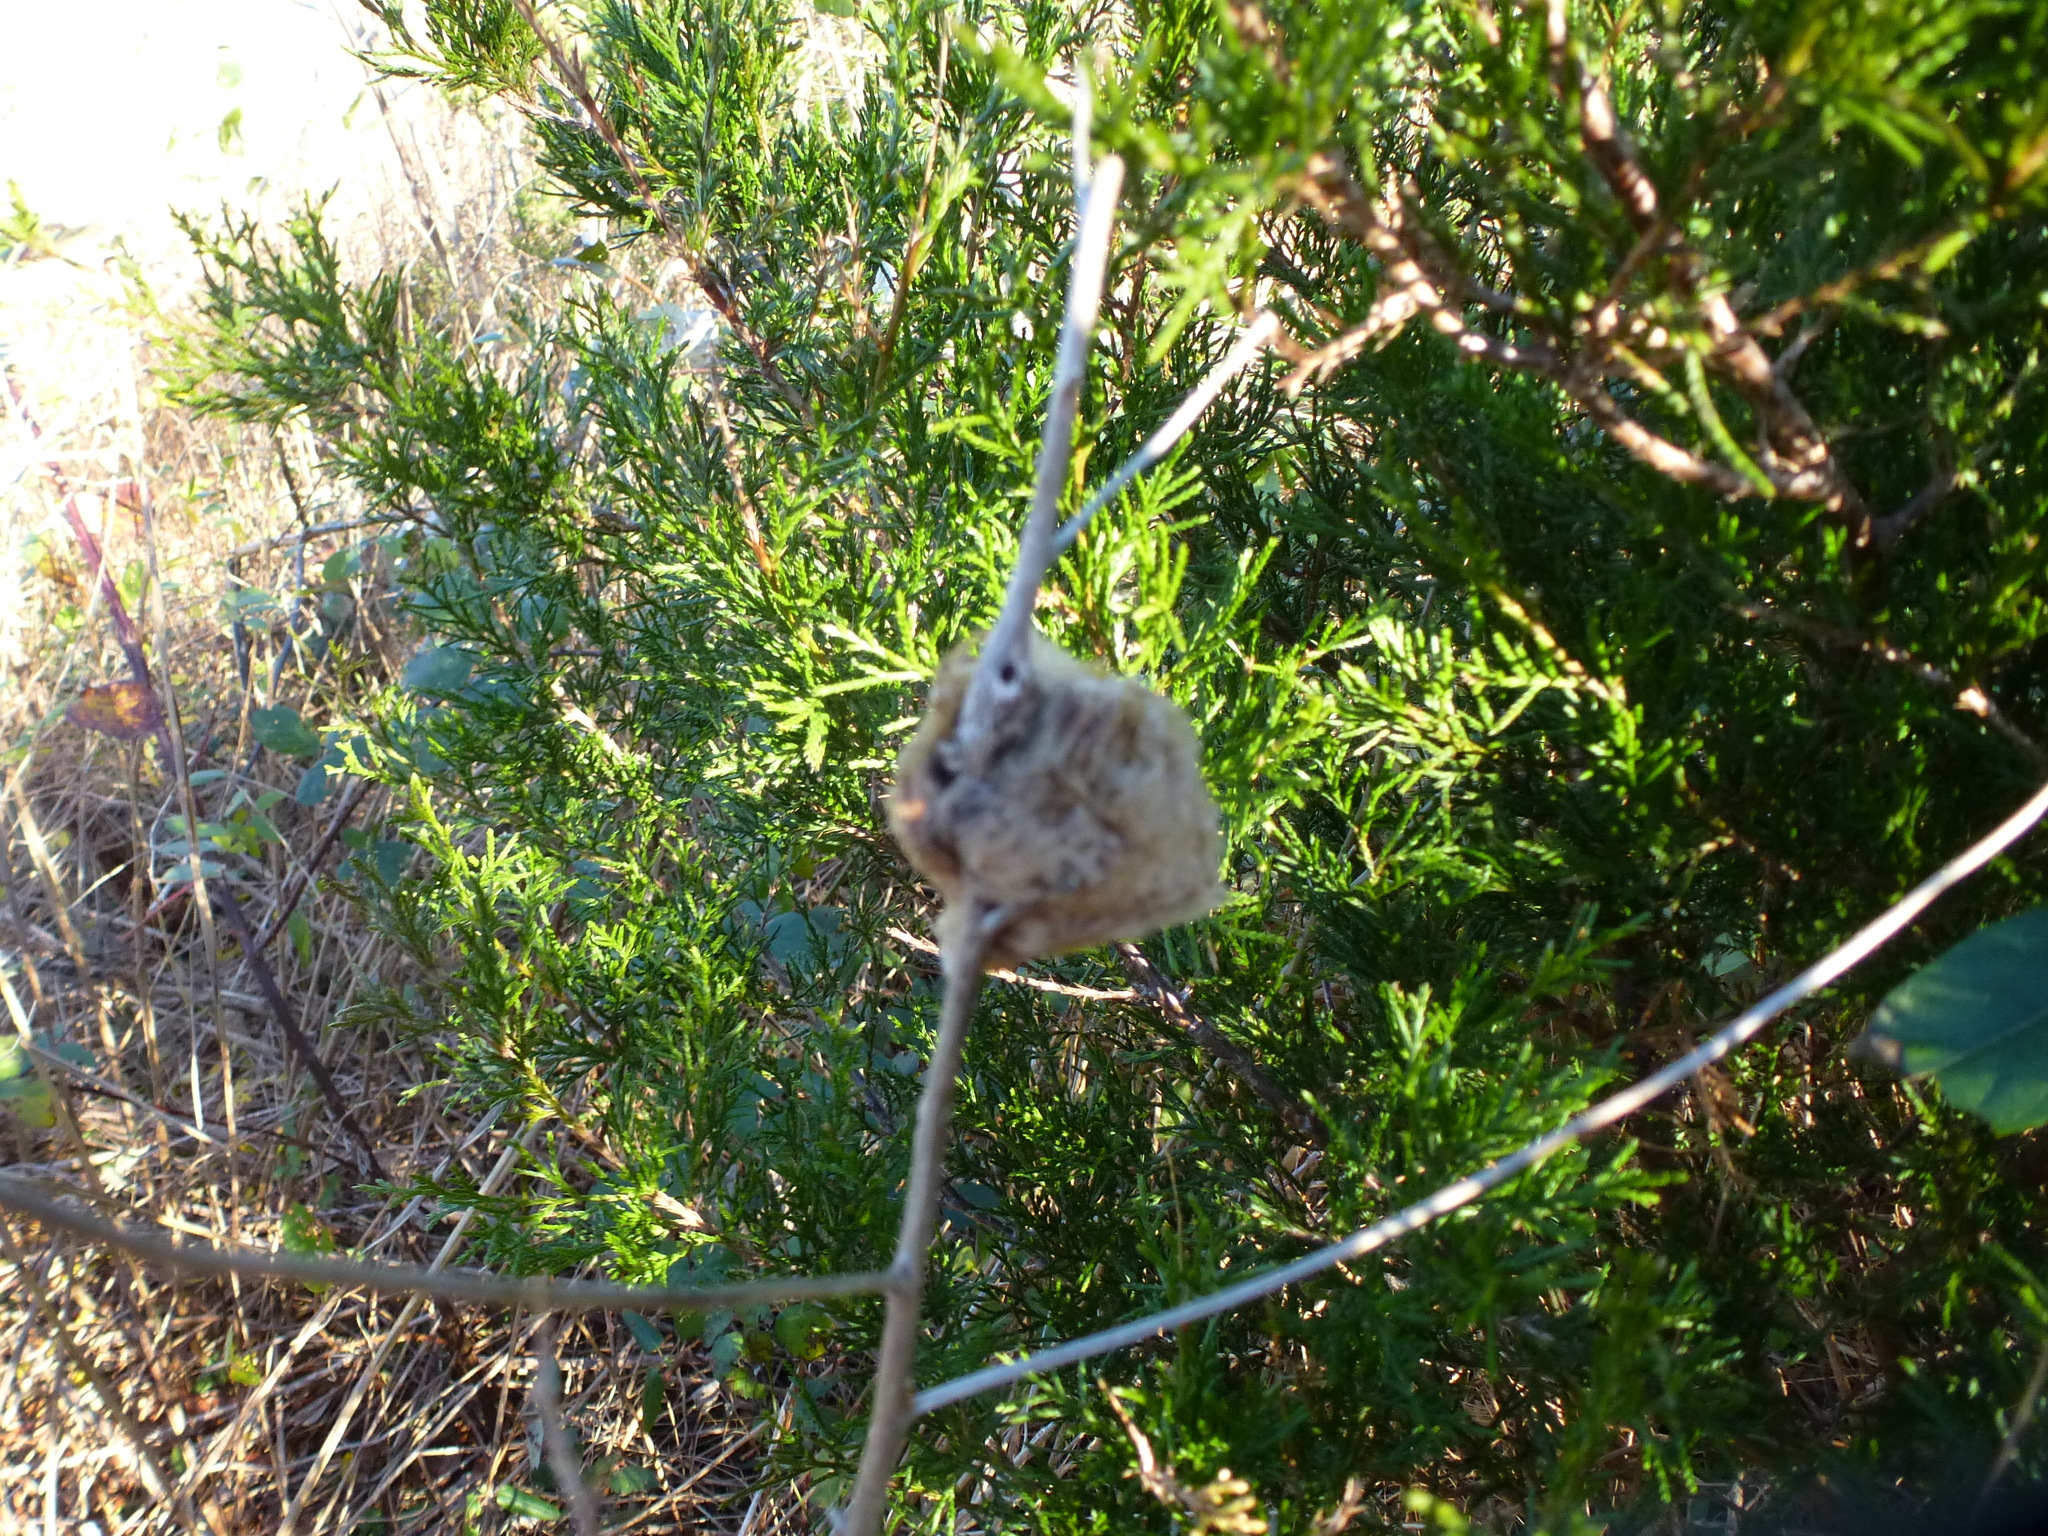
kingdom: Animalia
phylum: Arthropoda
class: Insecta
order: Mantodea
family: Mantidae
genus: Tenodera
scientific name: Tenodera sinensis
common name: Chinese mantis
